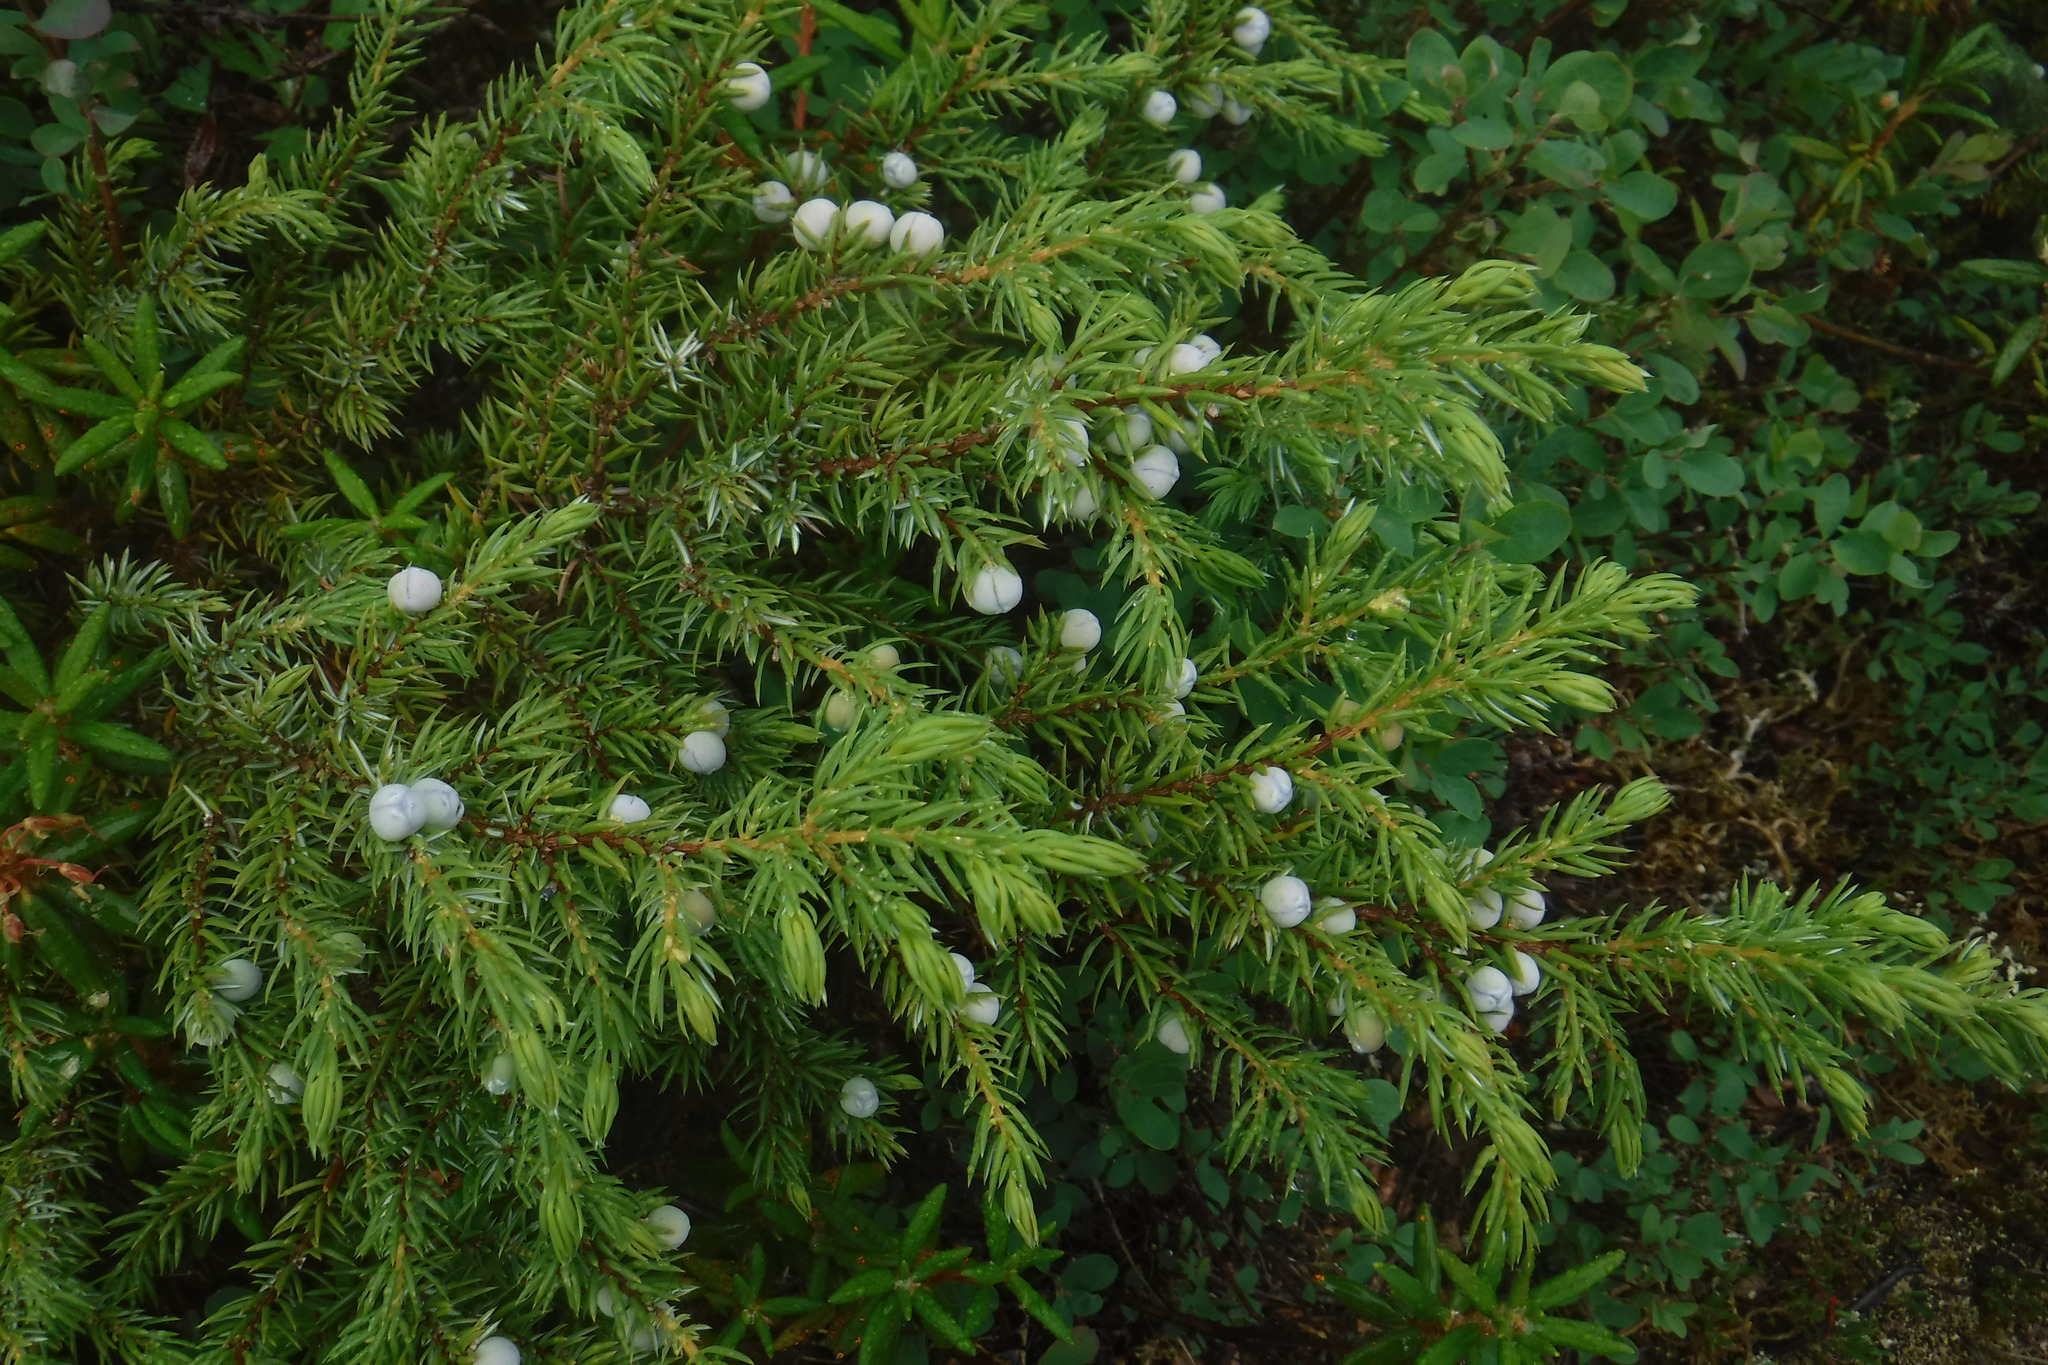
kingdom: Plantae
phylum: Tracheophyta
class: Pinopsida
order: Pinales
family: Cupressaceae
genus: Juniperus
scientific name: Juniperus communis
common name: Common juniper
